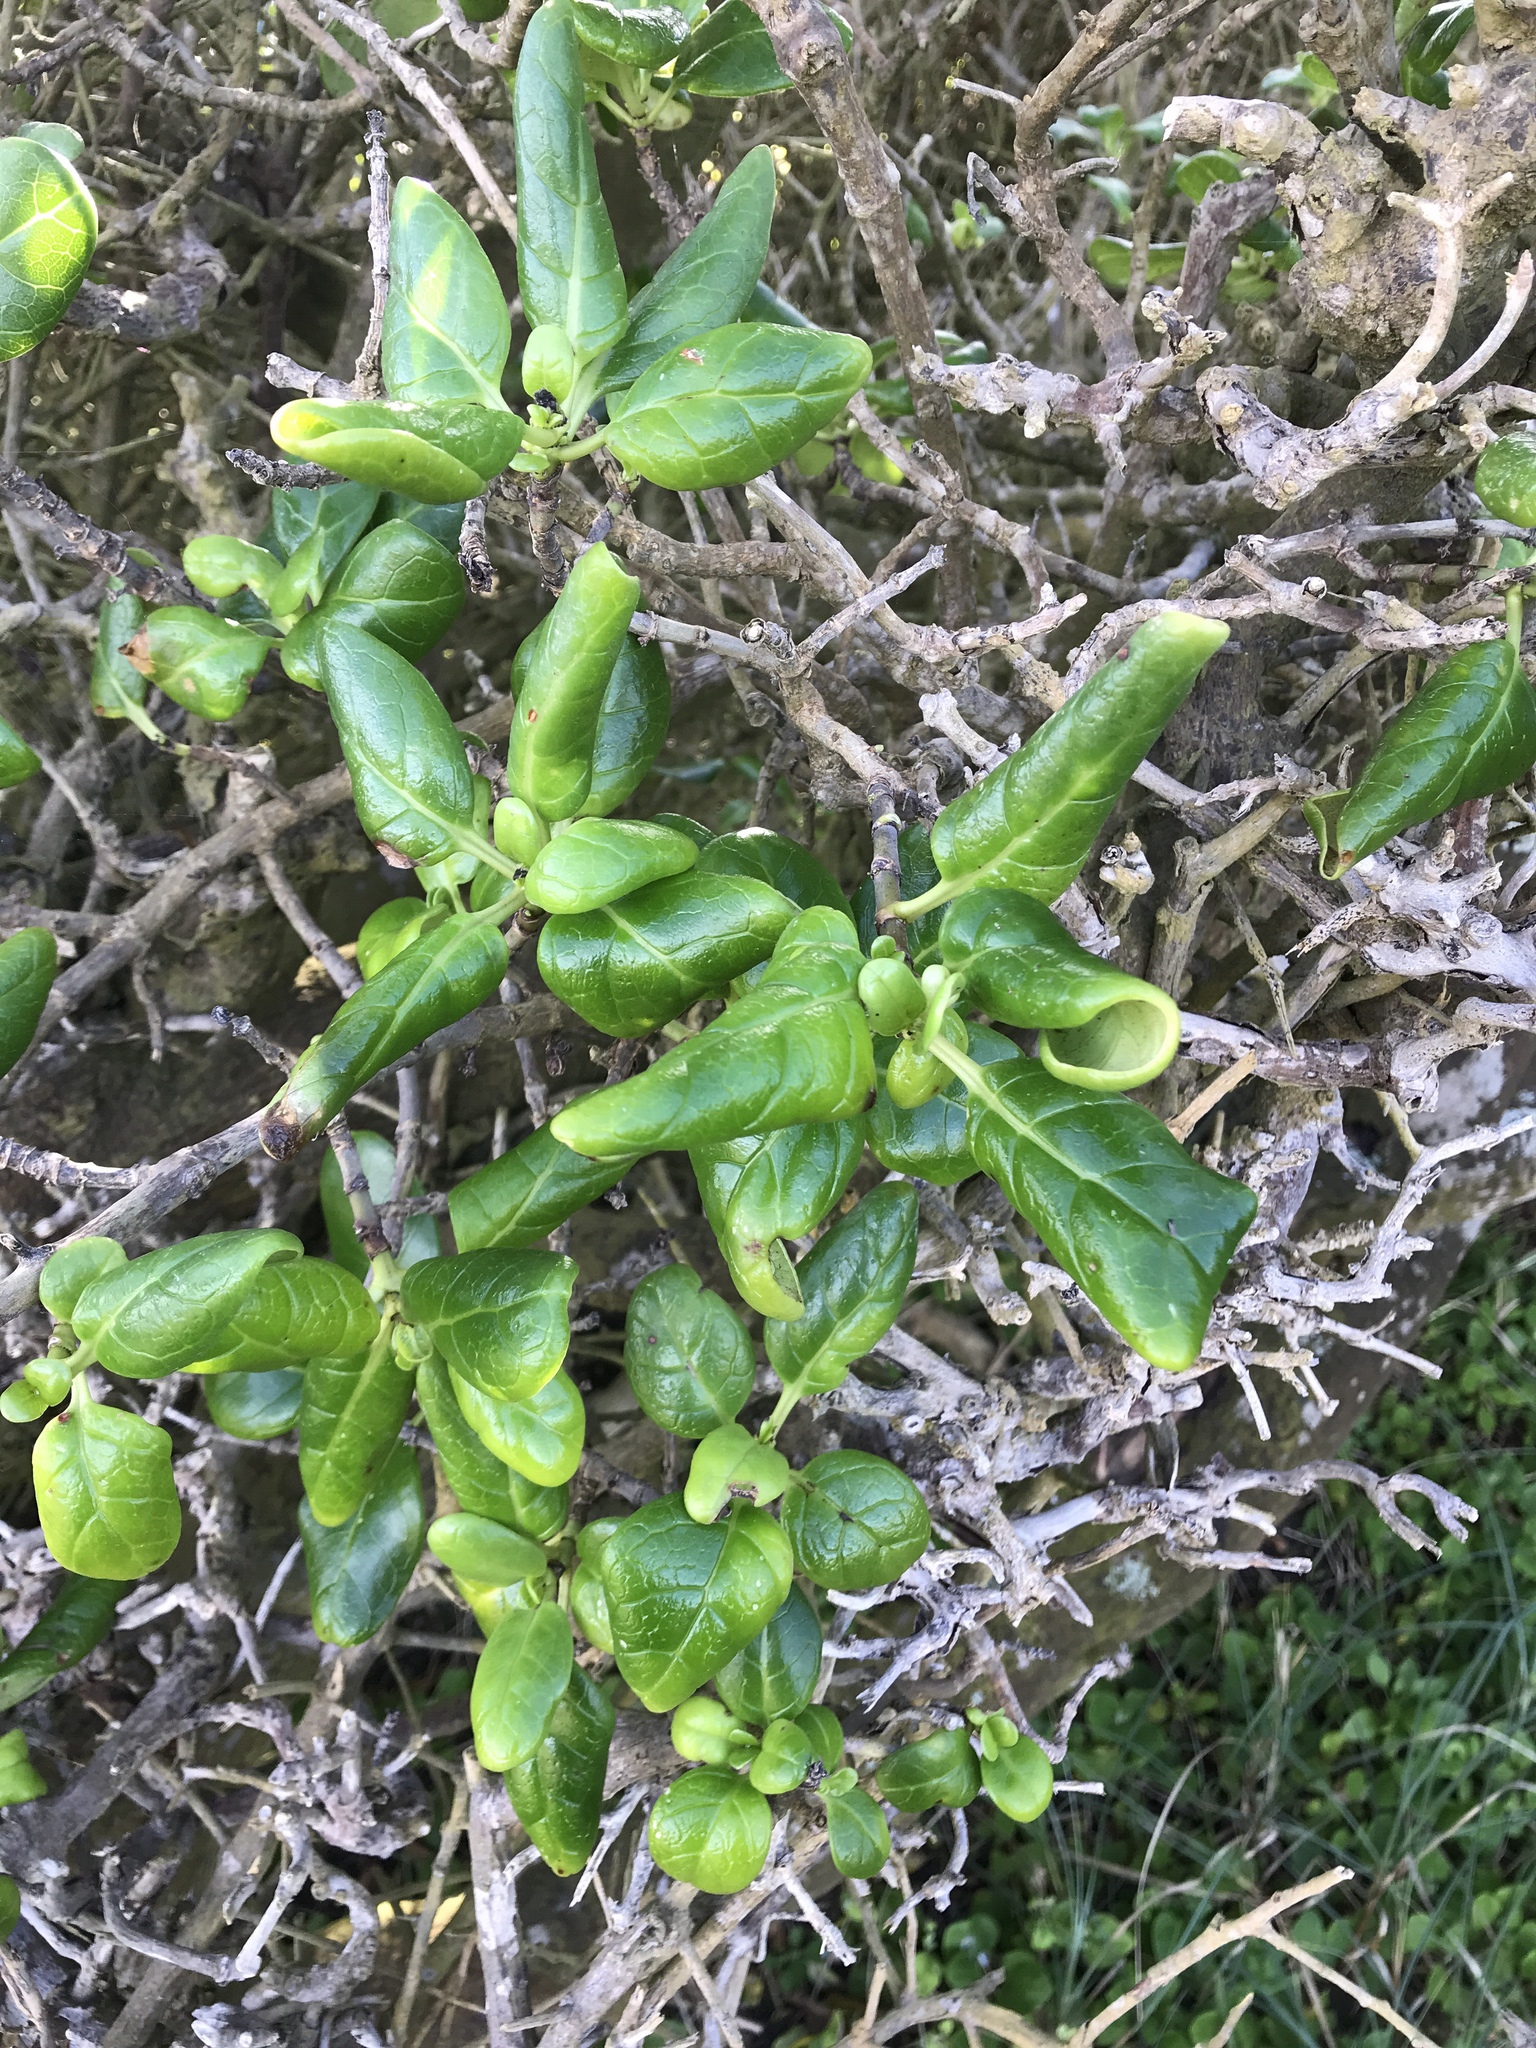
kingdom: Plantae
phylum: Tracheophyta
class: Magnoliopsida
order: Gentianales
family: Rubiaceae
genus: Coprosma
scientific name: Coprosma repens
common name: Tree bedstraw
